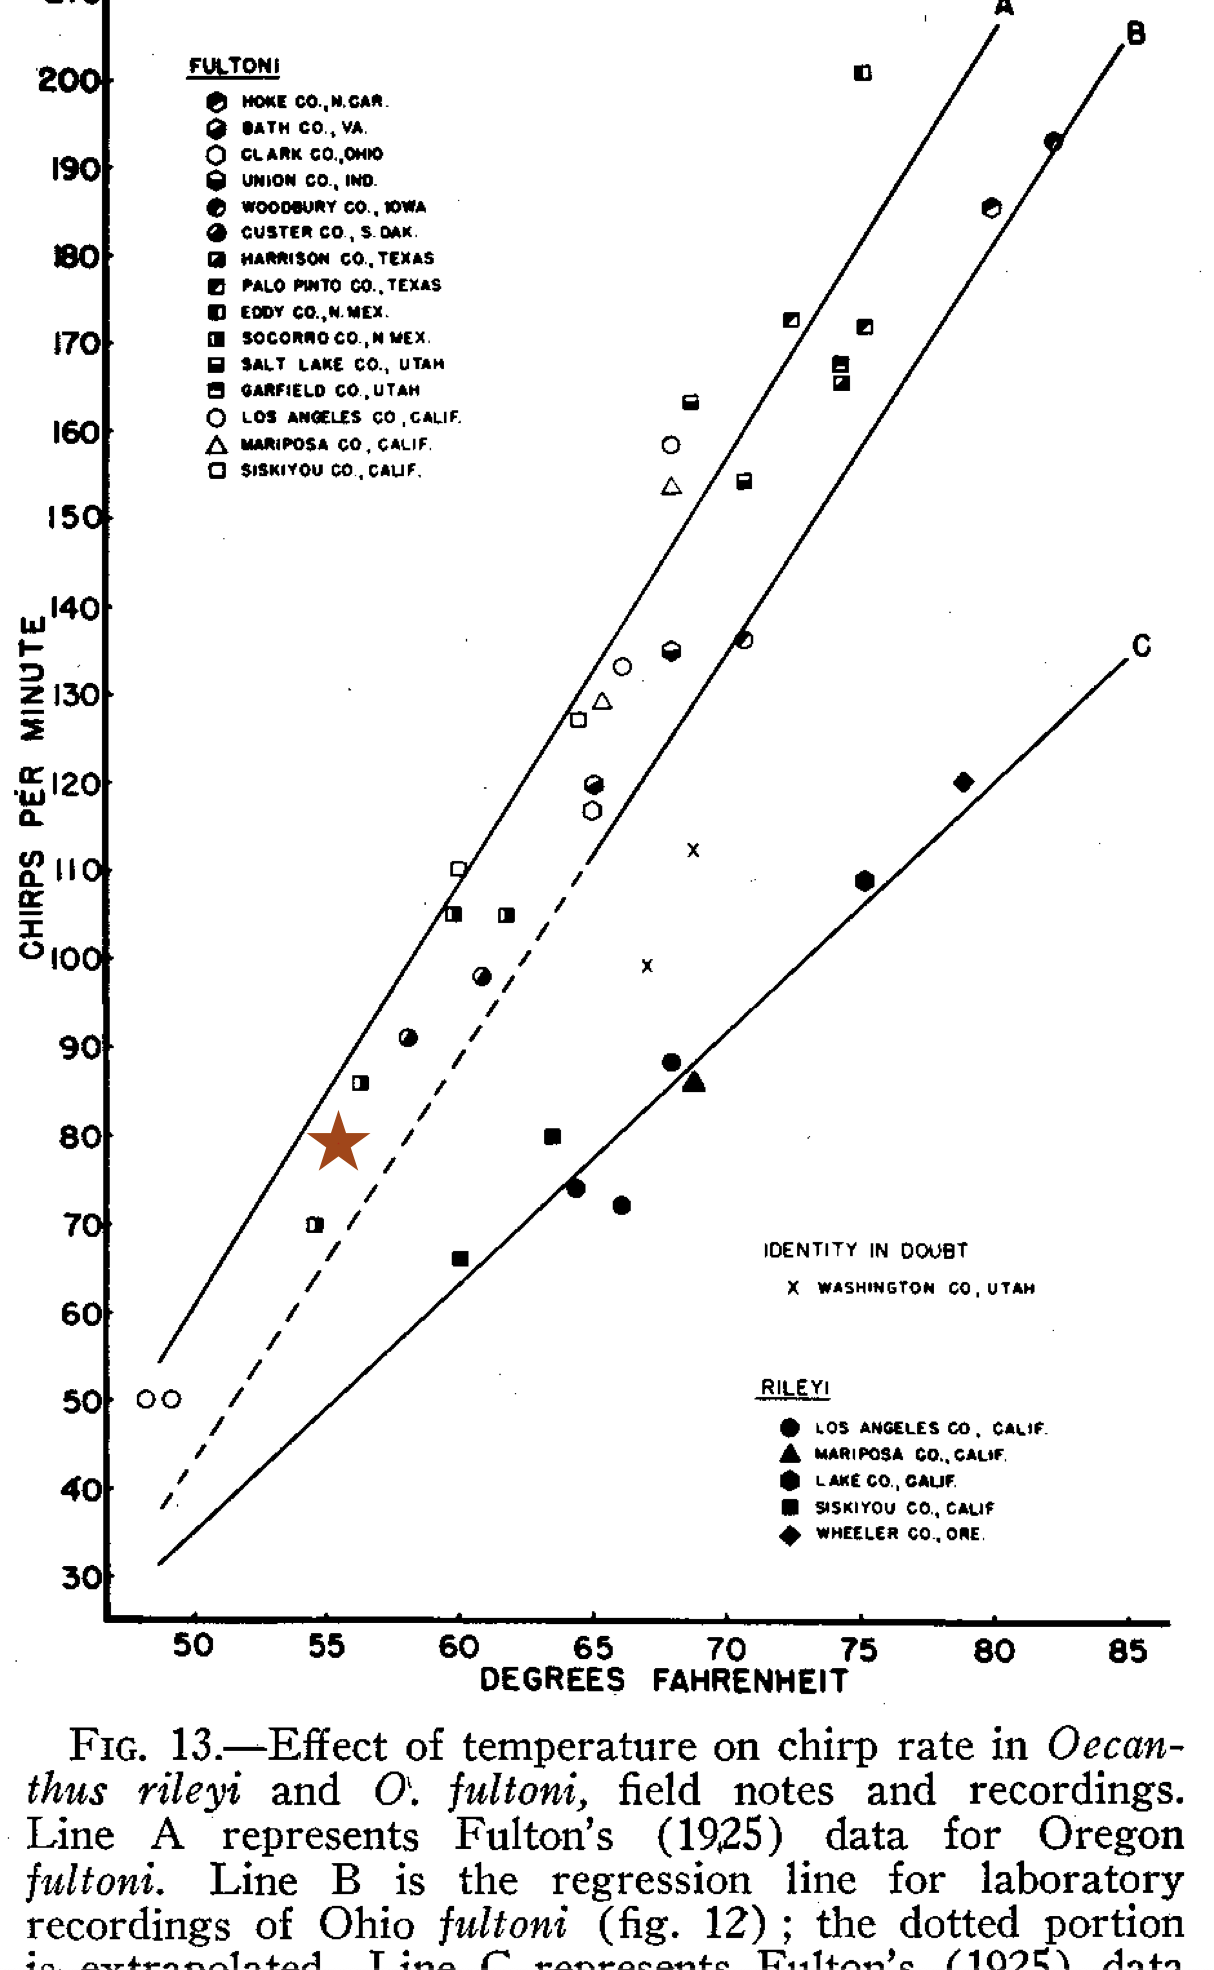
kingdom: Animalia
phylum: Arthropoda
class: Insecta
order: Orthoptera
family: Gryllidae
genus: Oecanthus
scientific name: Oecanthus fultoni
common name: Snowy tree cricket
